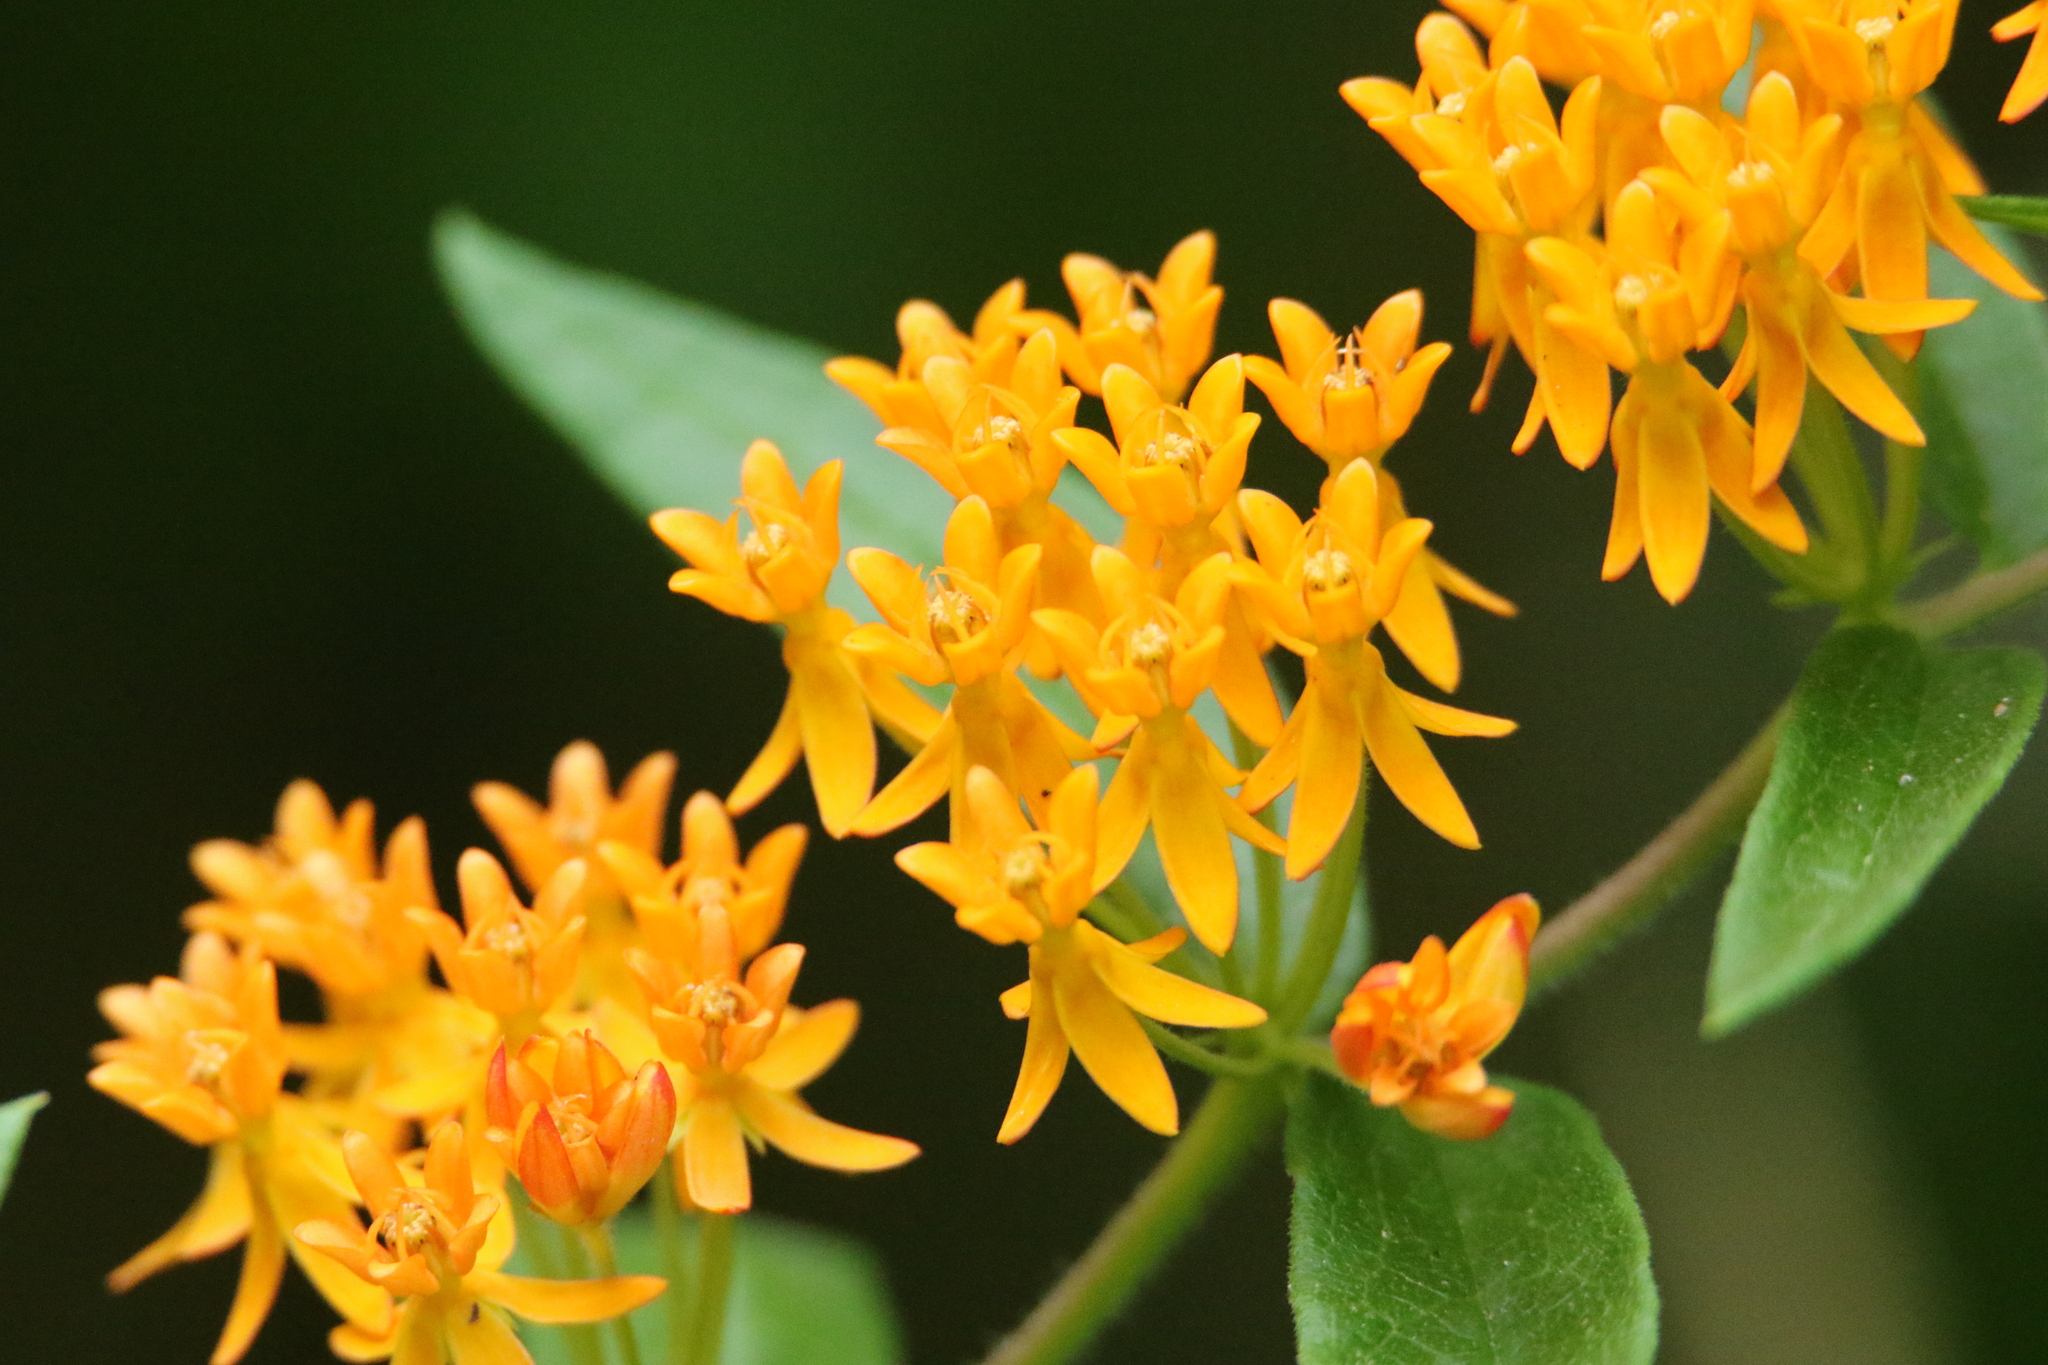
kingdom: Plantae
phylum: Tracheophyta
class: Magnoliopsida
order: Gentianales
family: Apocynaceae
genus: Asclepias
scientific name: Asclepias tuberosa
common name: Butterfly milkweed
